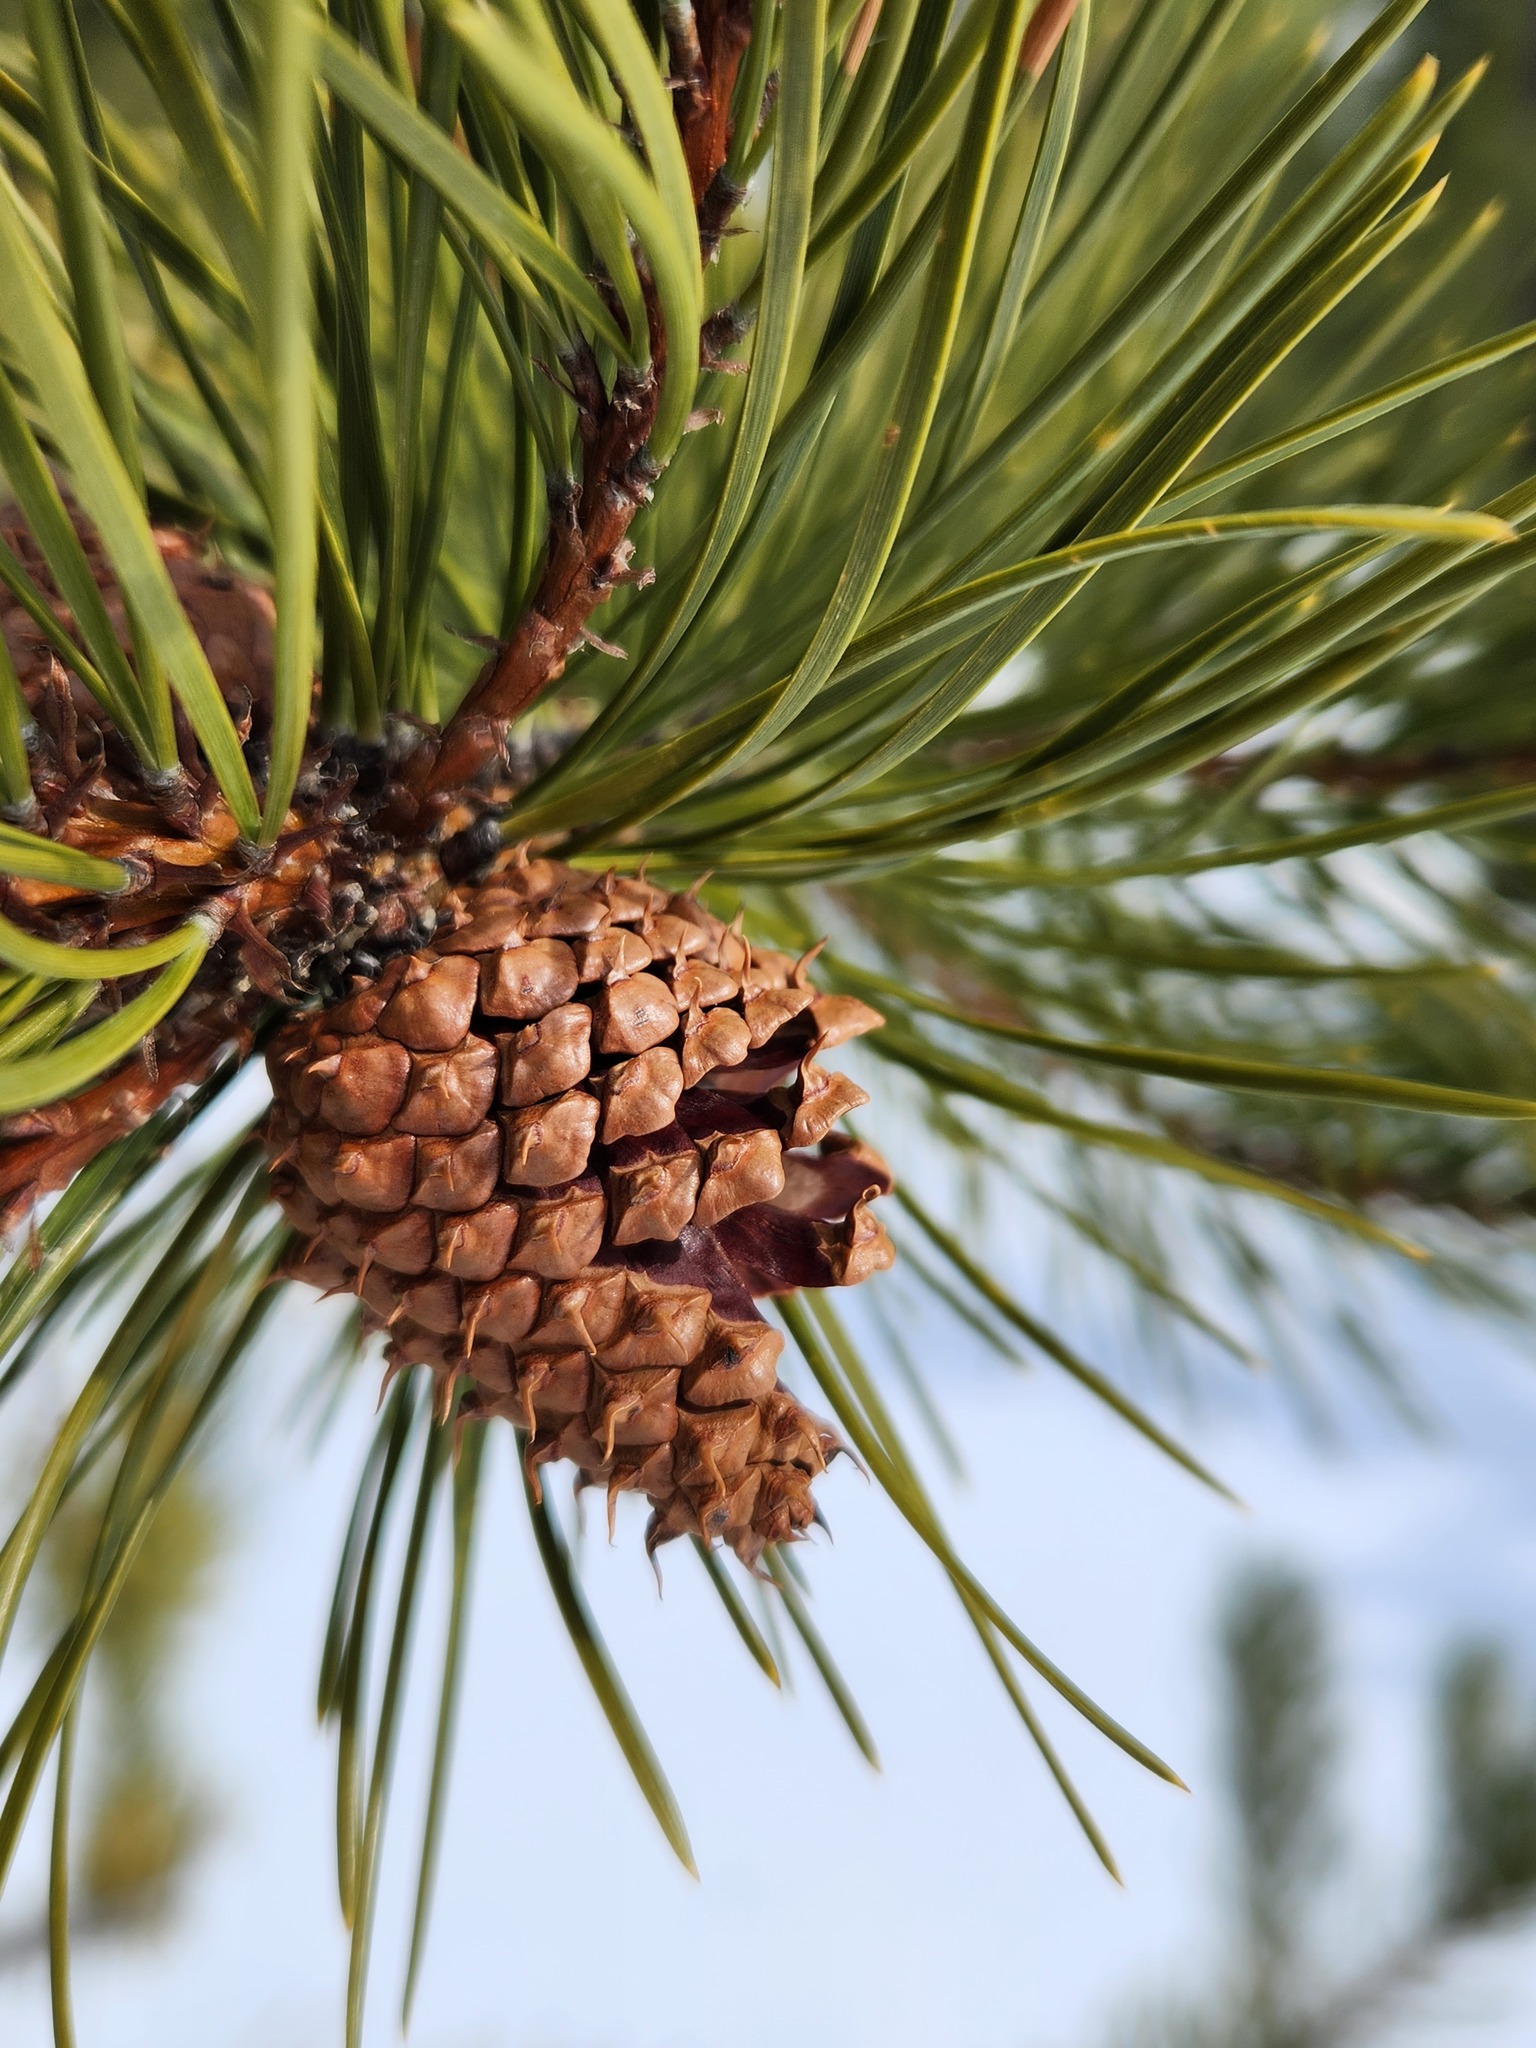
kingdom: Plantae
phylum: Tracheophyta
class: Pinopsida
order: Pinales
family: Pinaceae
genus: Pinus
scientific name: Pinus contorta
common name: Lodgepole pine
